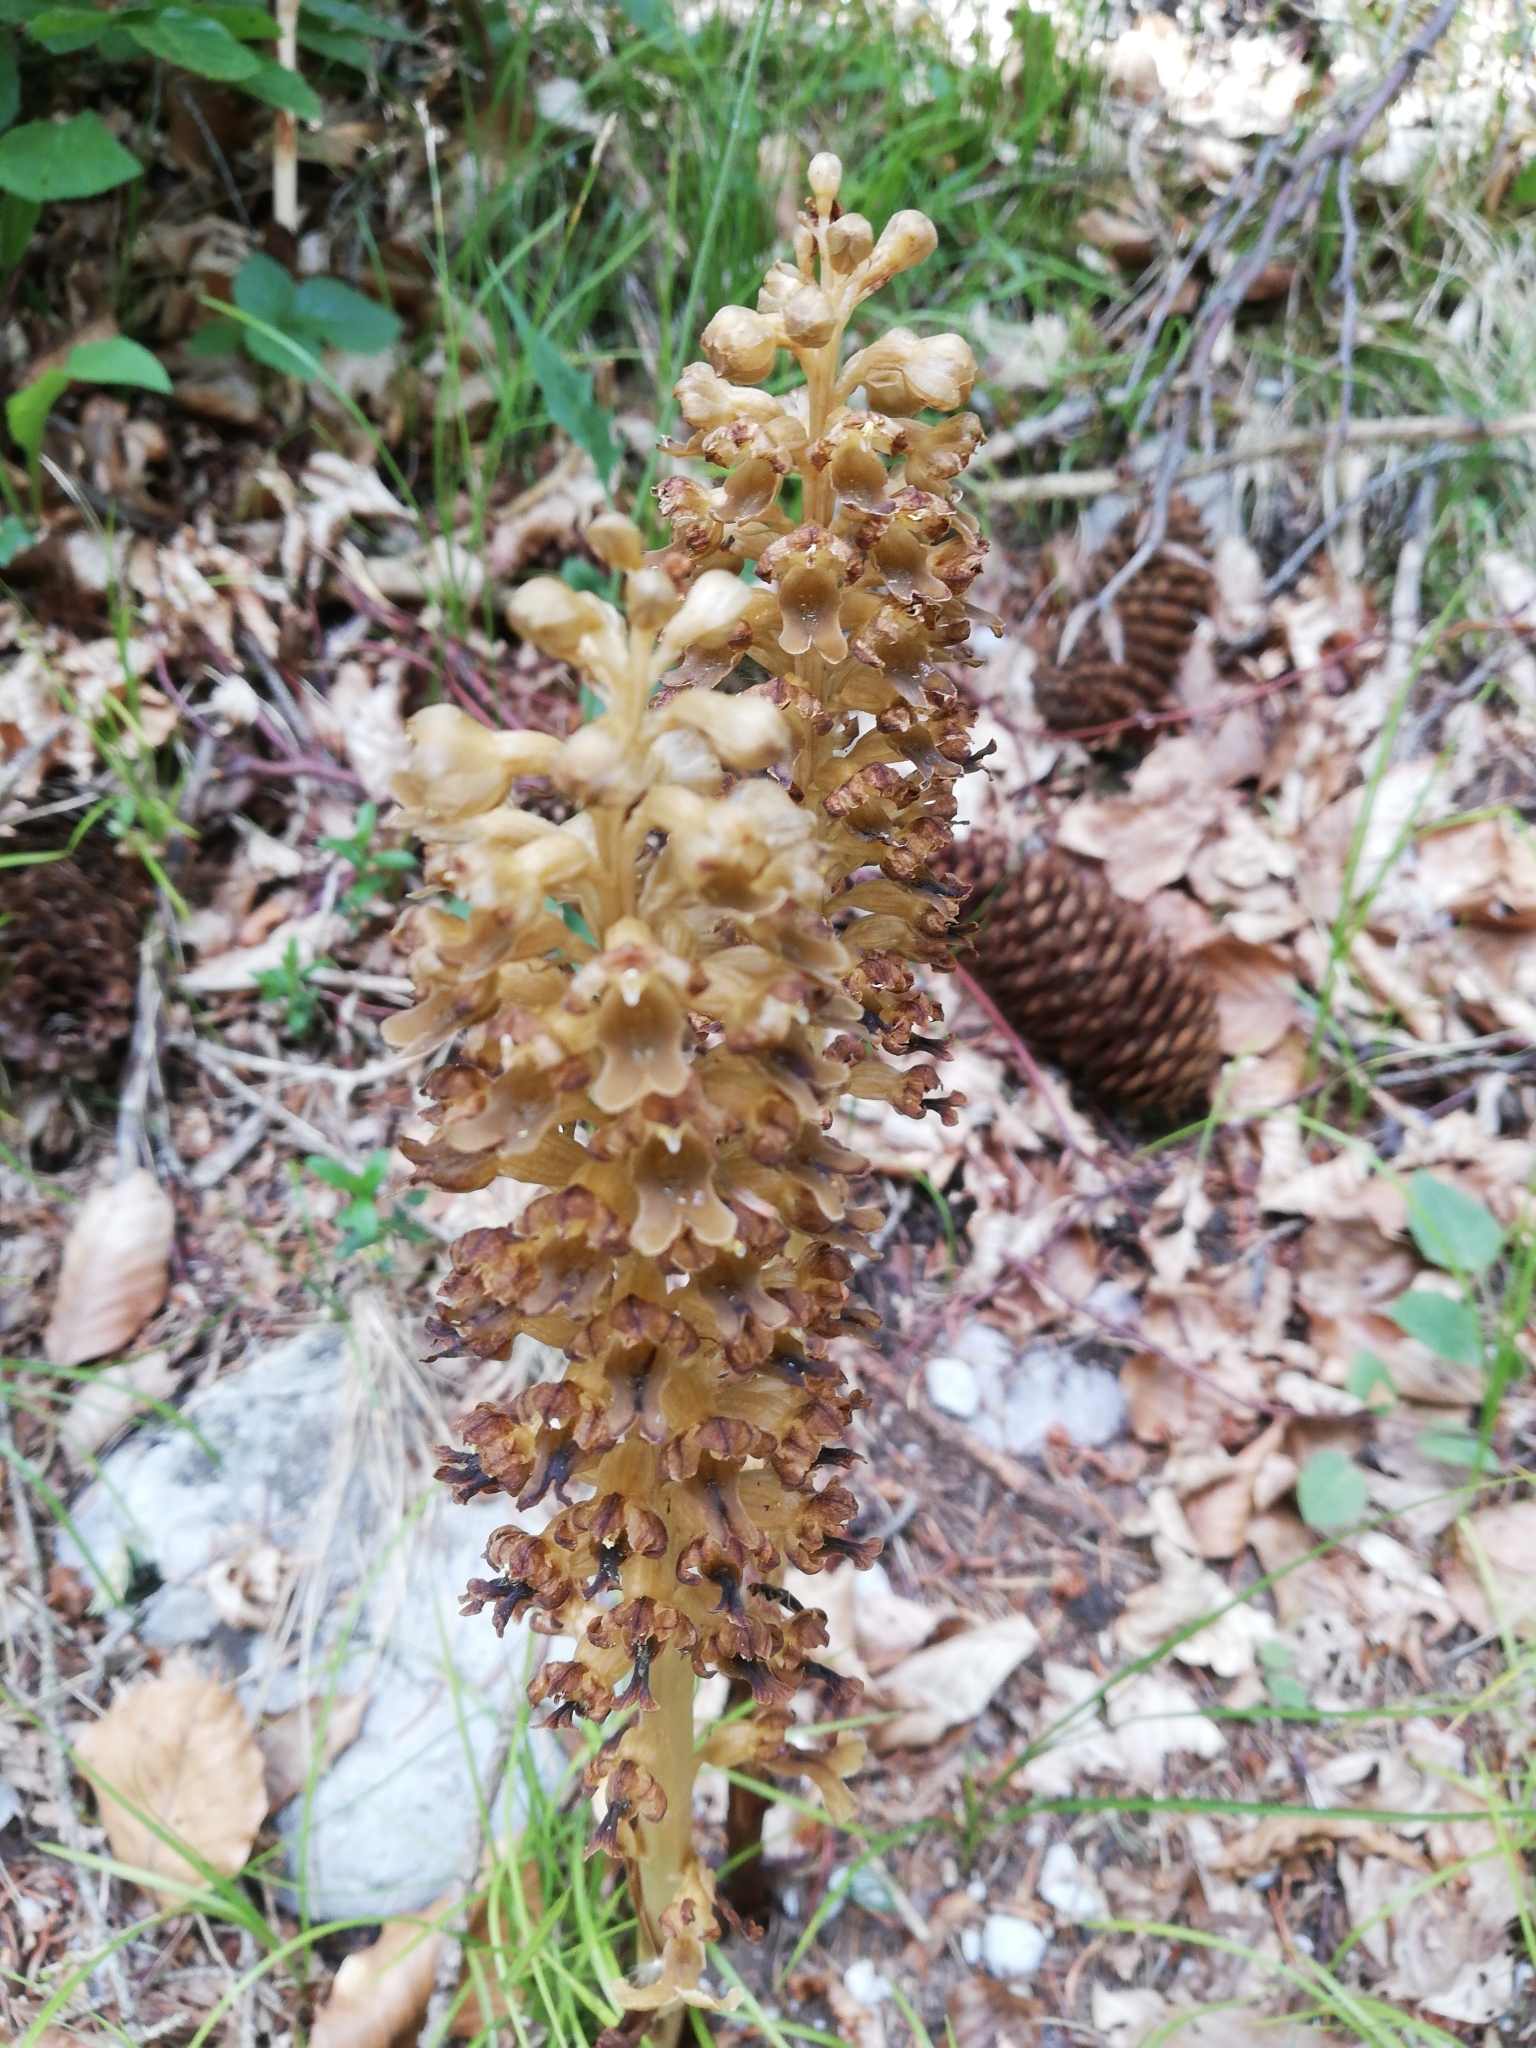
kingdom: Plantae
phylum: Tracheophyta
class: Liliopsida
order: Asparagales
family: Orchidaceae
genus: Neottia
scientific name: Neottia nidus-avis
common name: Bird's-nest orchid
